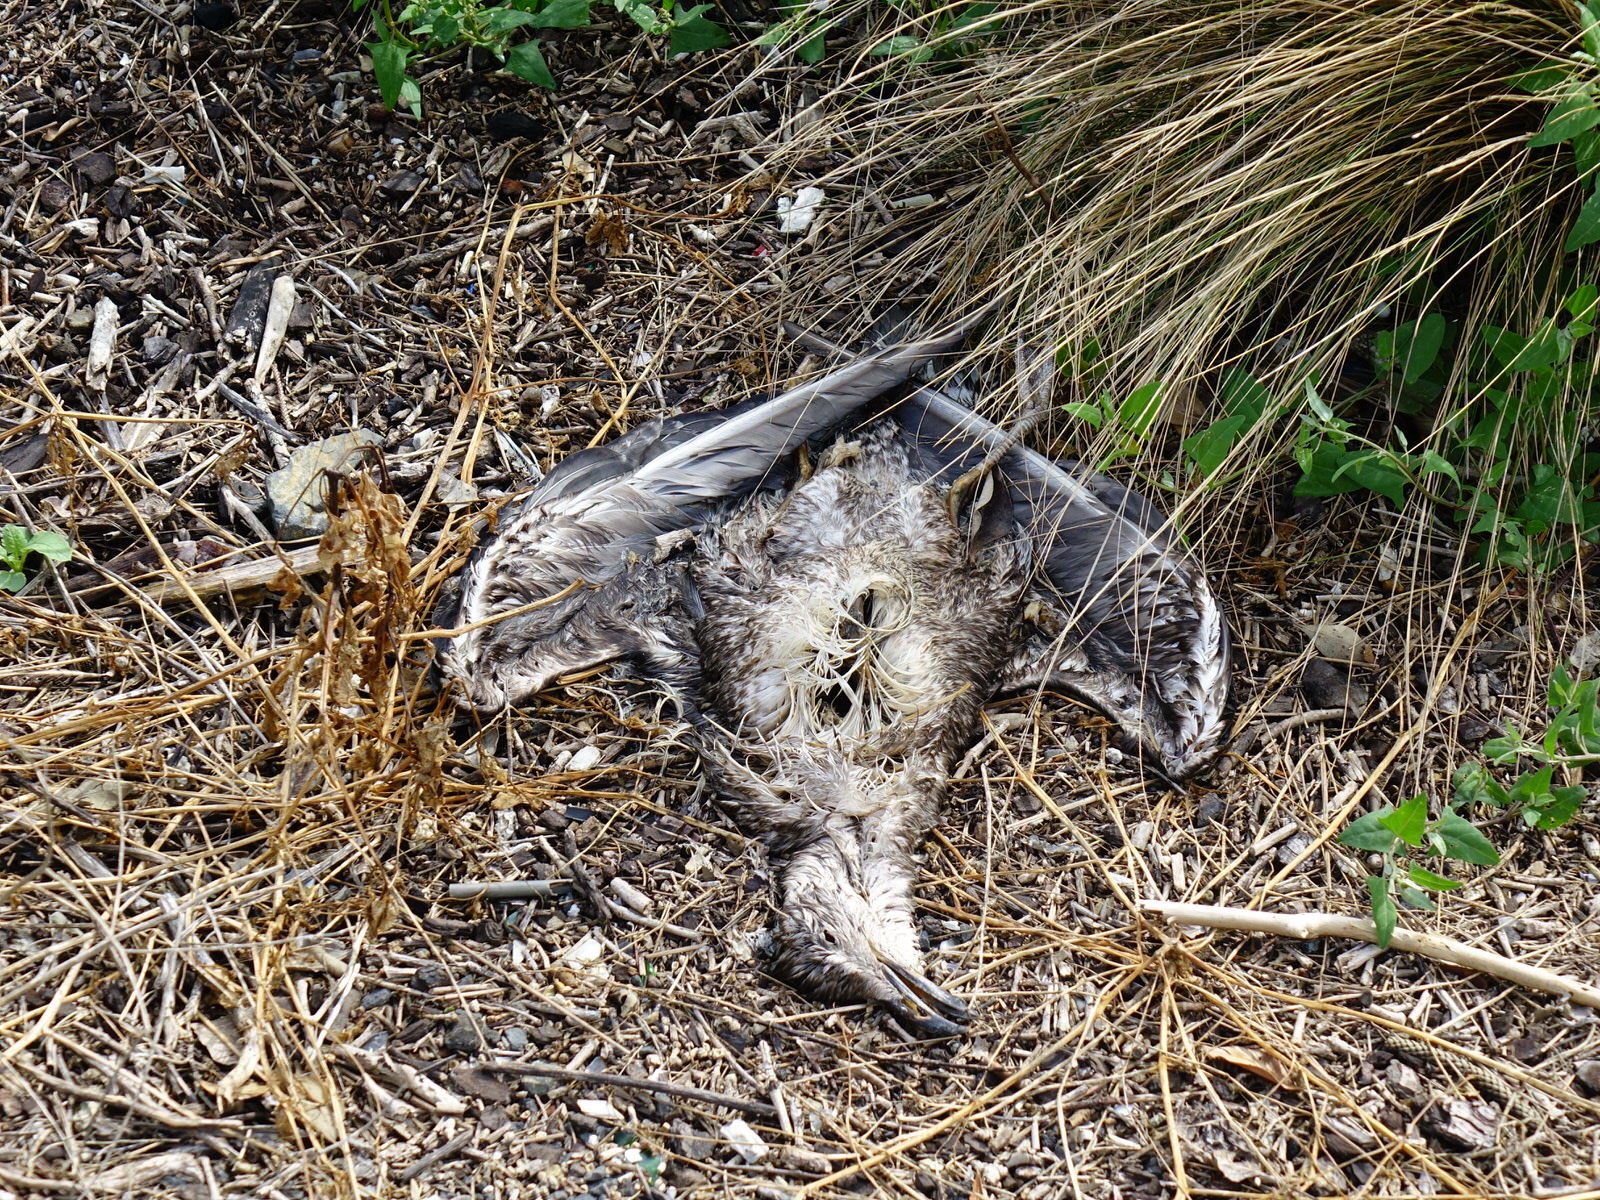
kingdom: Animalia
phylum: Chordata
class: Aves
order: Charadriiformes
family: Laridae
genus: Larus
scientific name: Larus dominicanus
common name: Kelp gull
